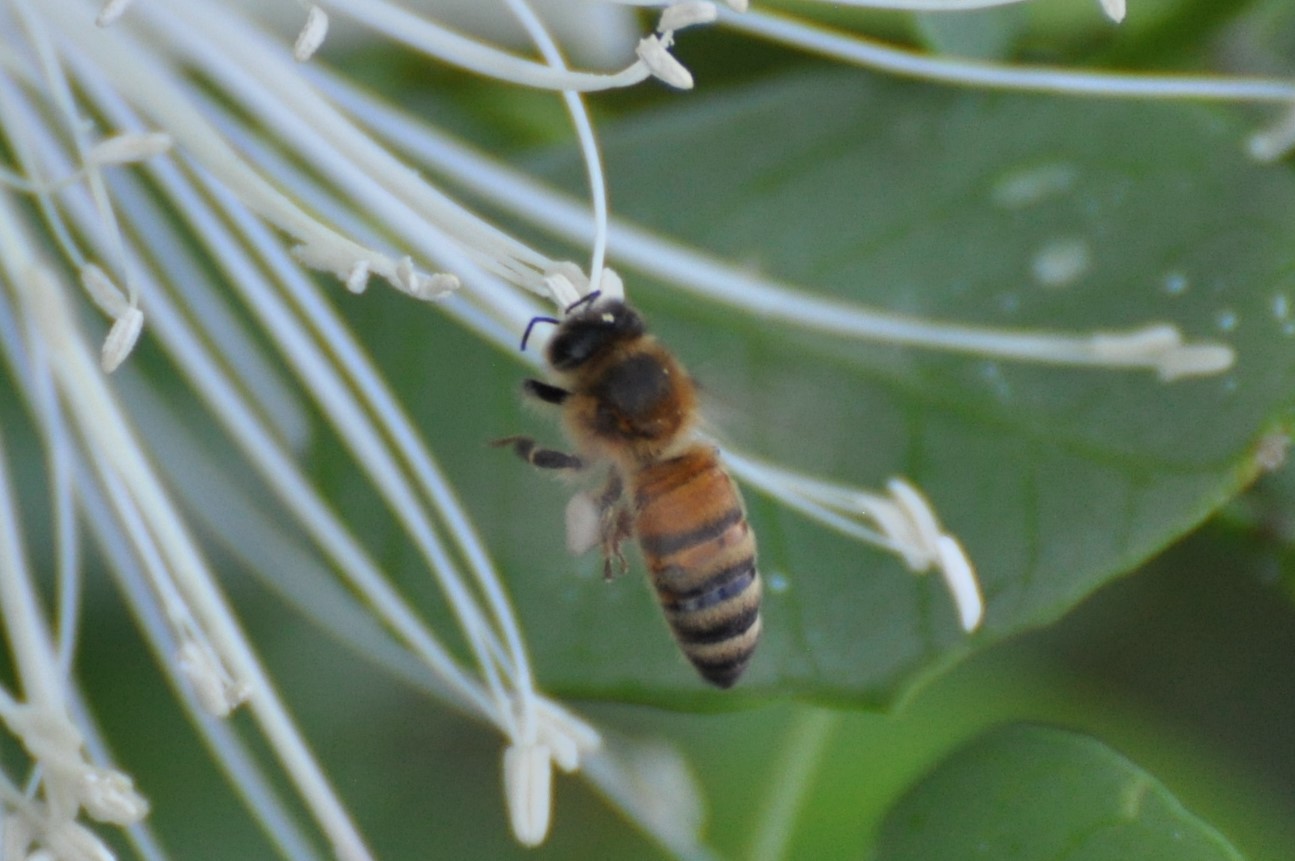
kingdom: Animalia
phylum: Arthropoda
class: Insecta
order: Hymenoptera
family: Apidae
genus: Apis
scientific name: Apis mellifera
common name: Honey bee
